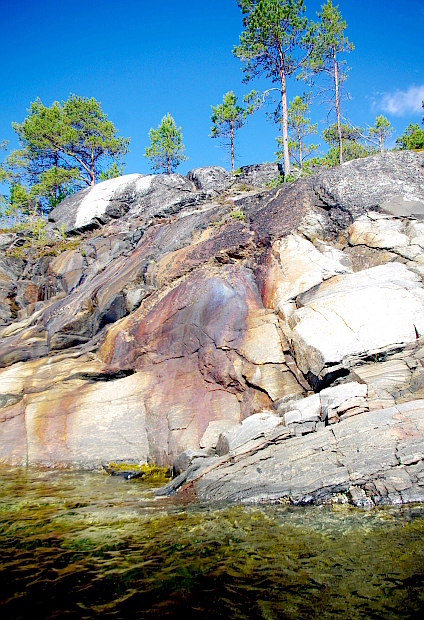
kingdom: Plantae
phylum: Tracheophyta
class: Pinopsida
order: Pinales
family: Pinaceae
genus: Pinus
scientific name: Pinus sylvestris
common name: Scots pine
